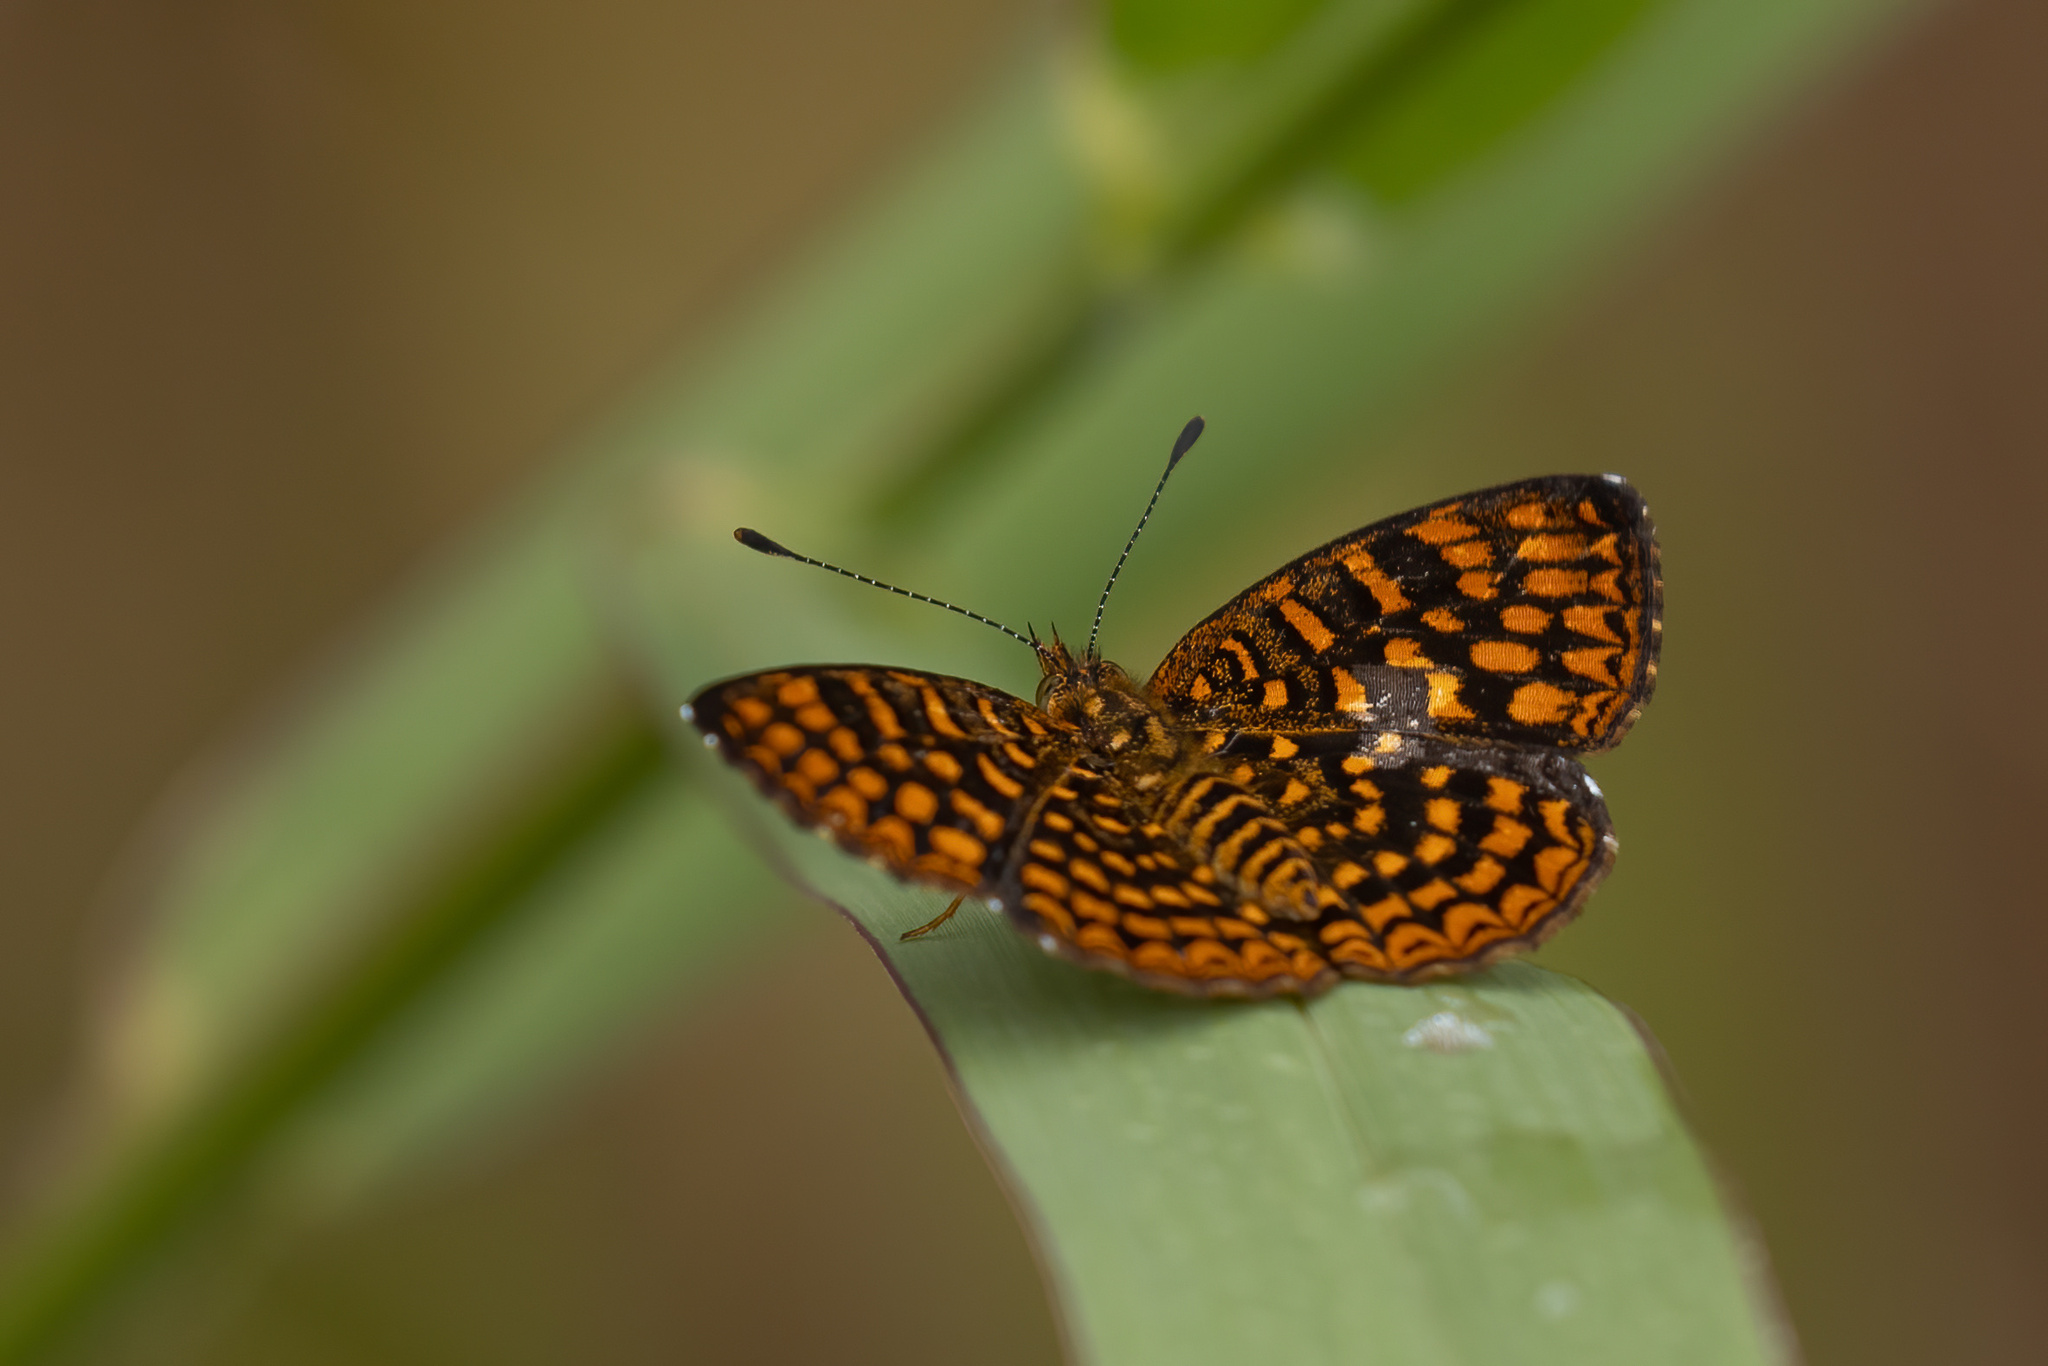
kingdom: Animalia
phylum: Arthropoda
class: Insecta
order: Lepidoptera
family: Nymphalidae
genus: Antillea
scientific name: Antillea pelops
